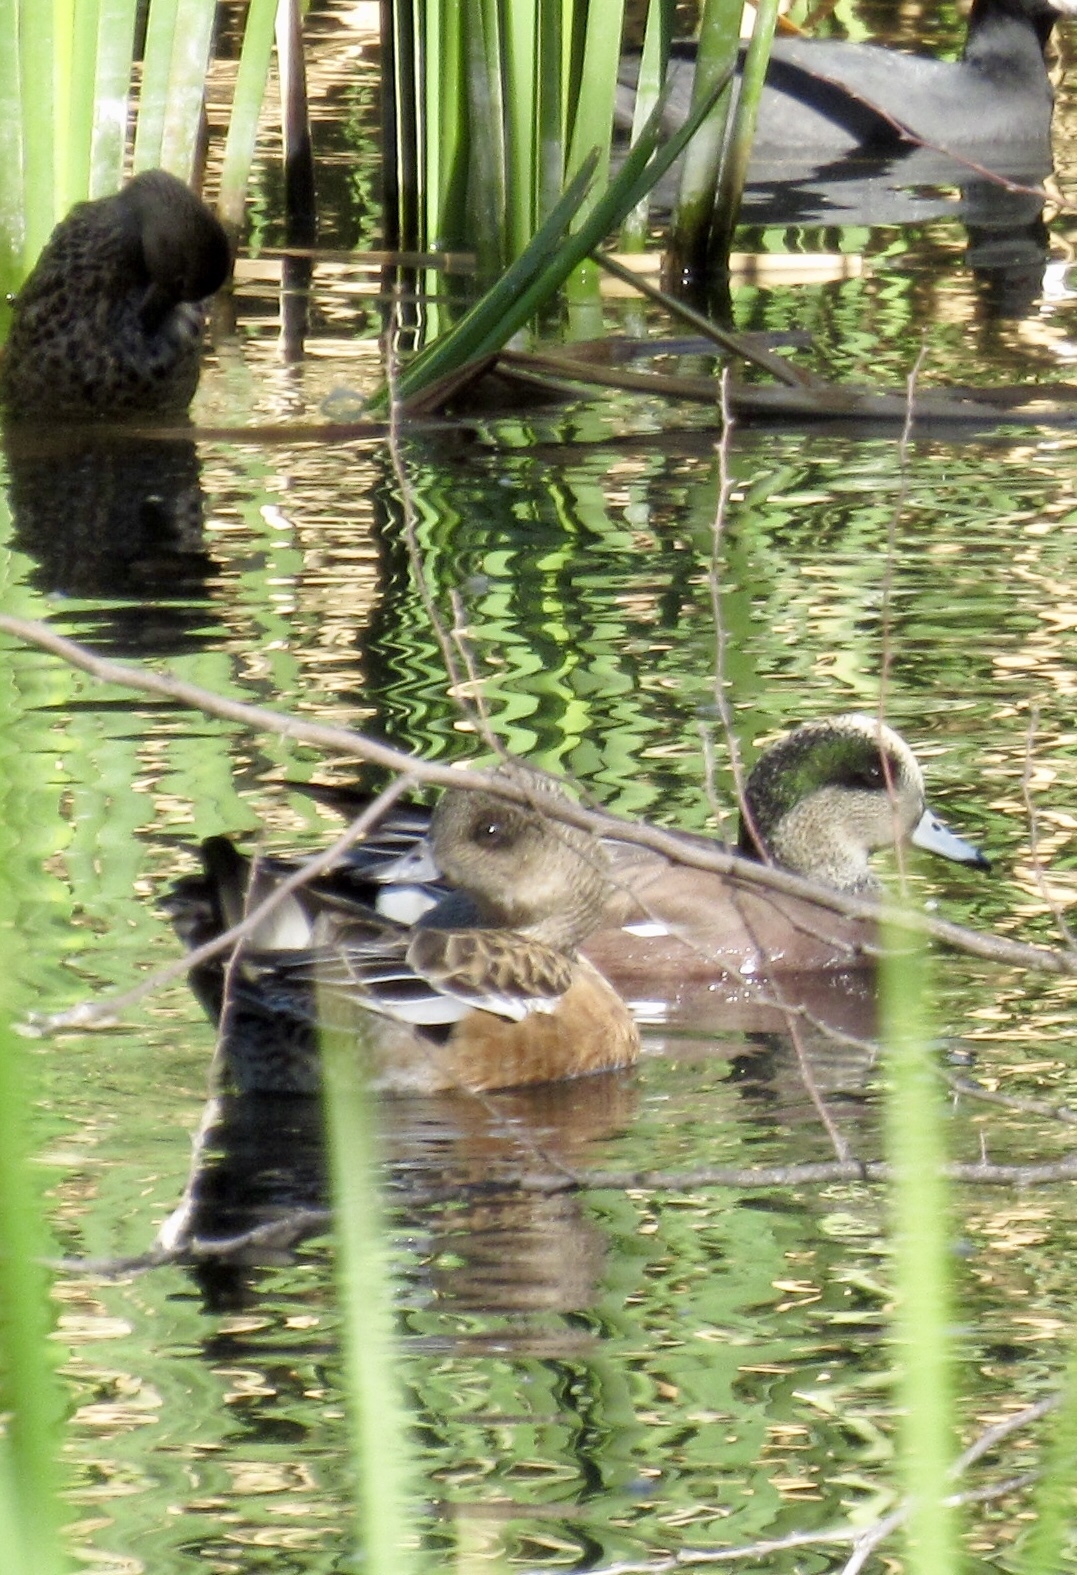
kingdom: Animalia
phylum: Chordata
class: Aves
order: Anseriformes
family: Anatidae
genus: Mareca
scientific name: Mareca americana
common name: American wigeon
